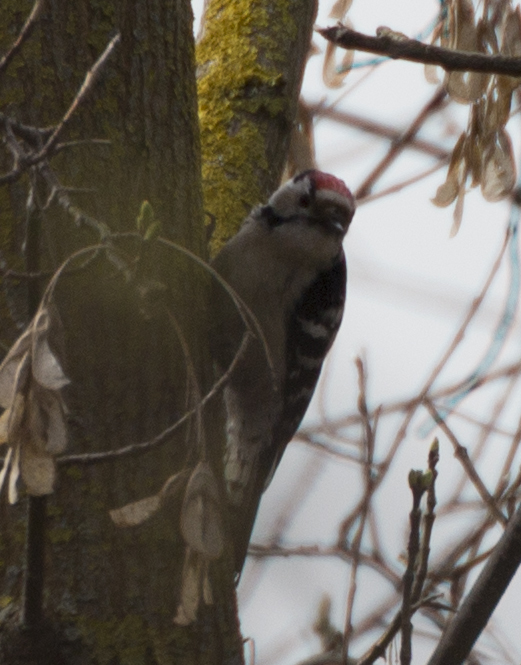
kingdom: Animalia
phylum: Chordata
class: Aves
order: Piciformes
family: Picidae
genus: Dryobates
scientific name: Dryobates minor
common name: Lesser spotted woodpecker
